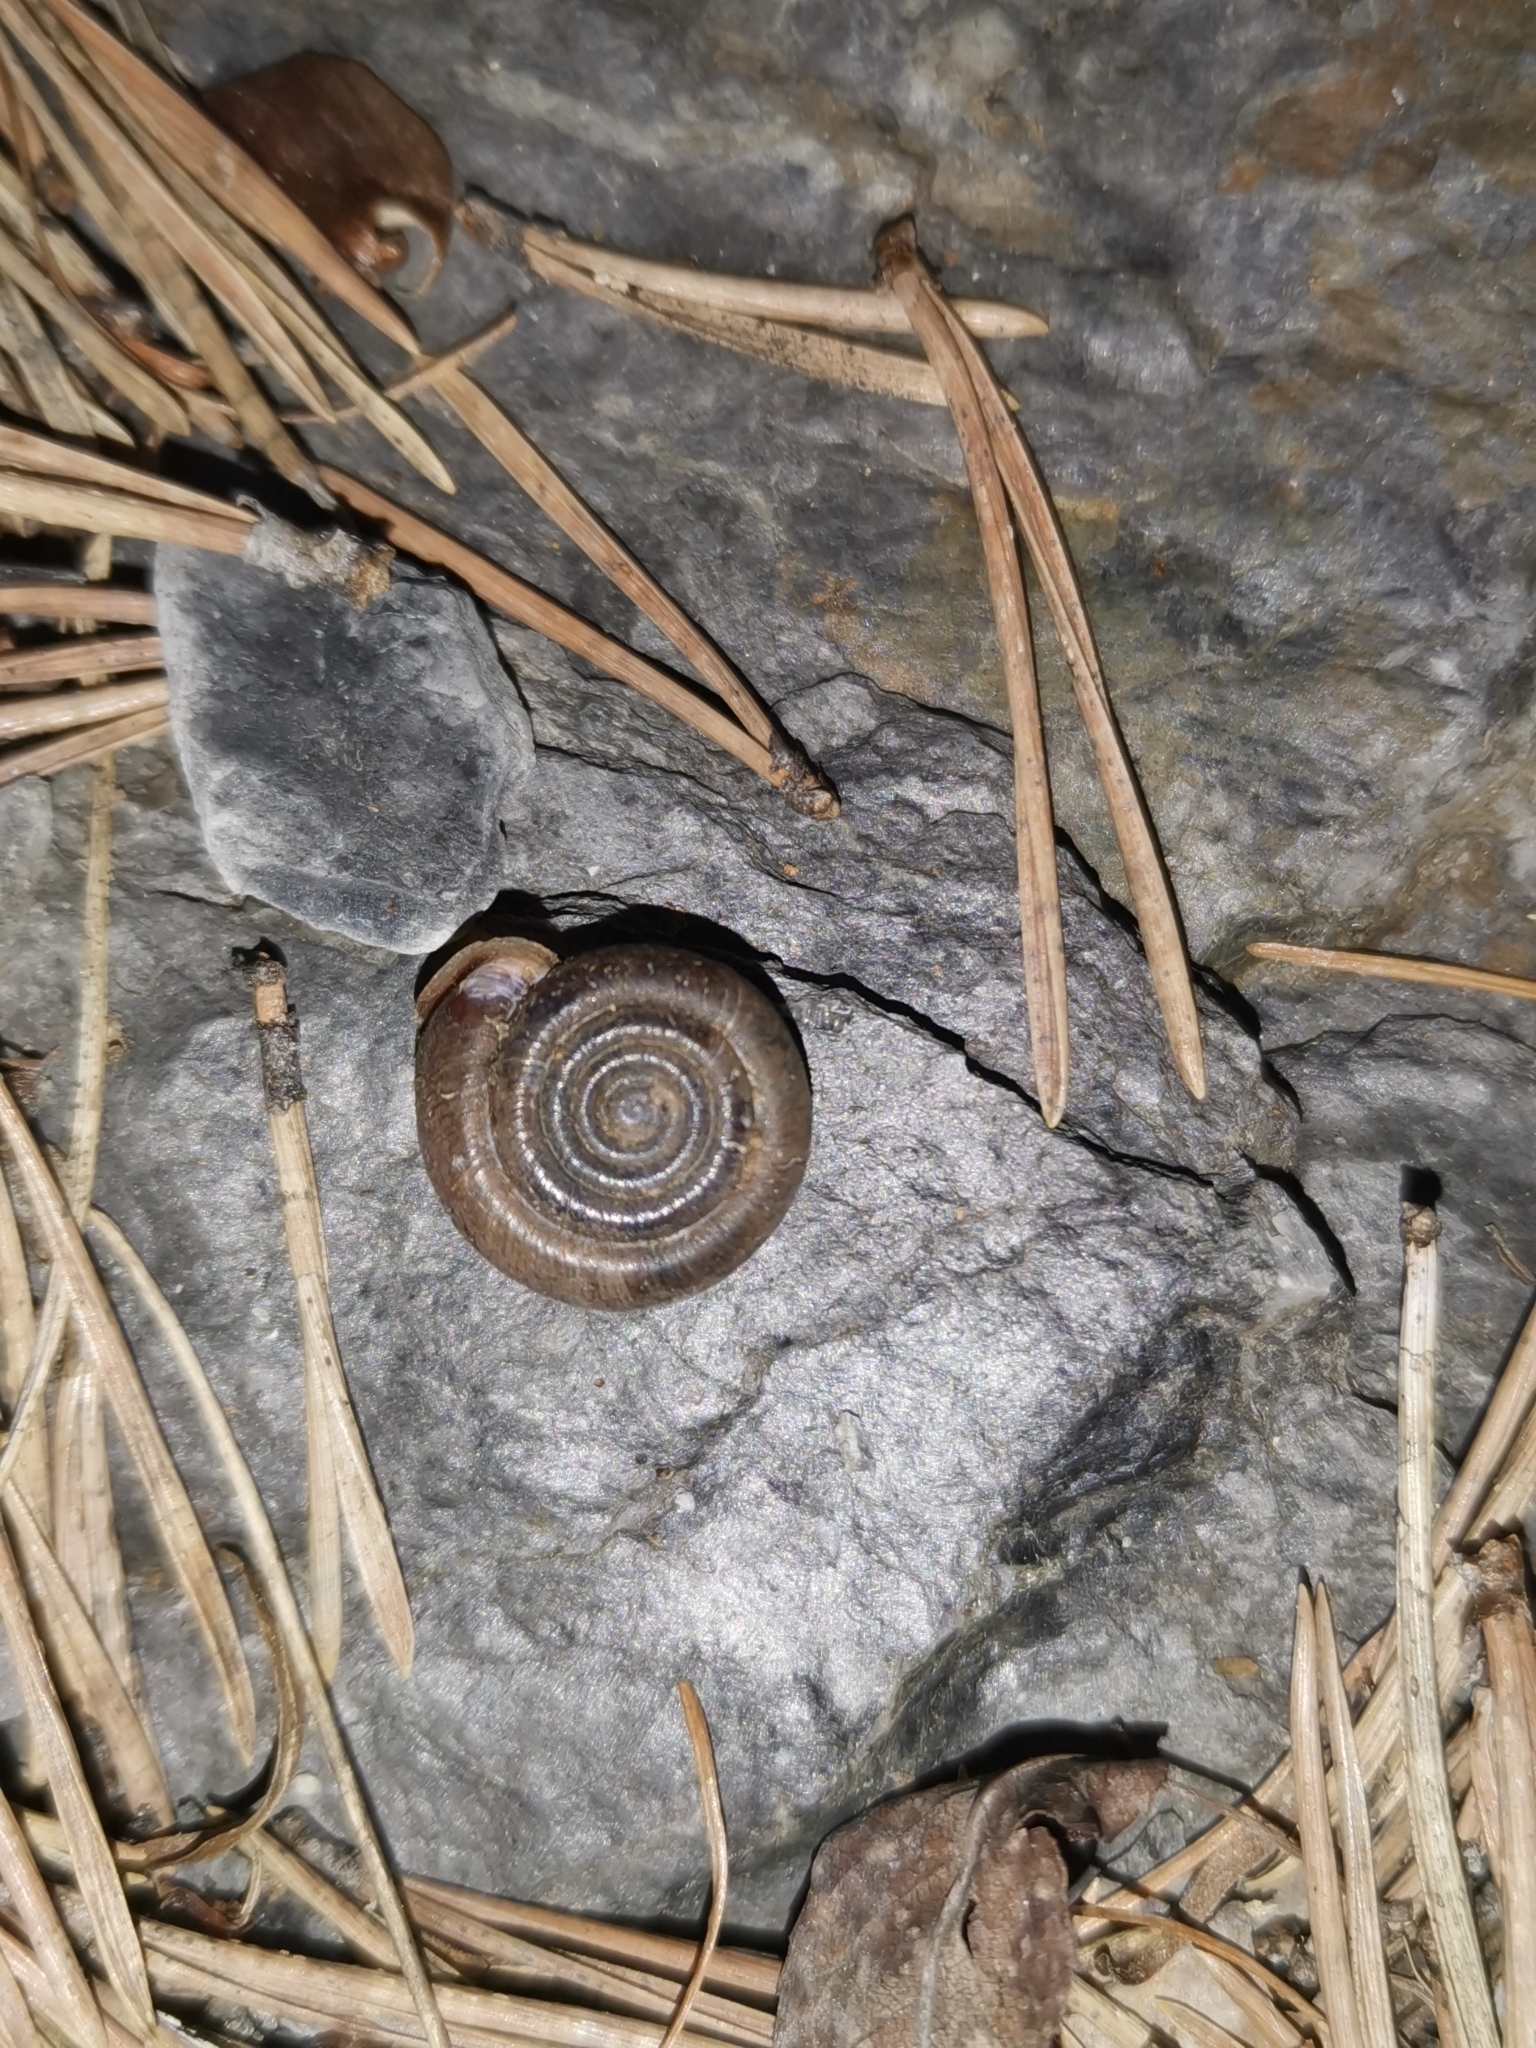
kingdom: Animalia
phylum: Mollusca
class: Gastropoda
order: Stylommatophora
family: Helicodontidae
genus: Helicodonta
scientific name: Helicodonta obvoluta
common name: Cheese snail
